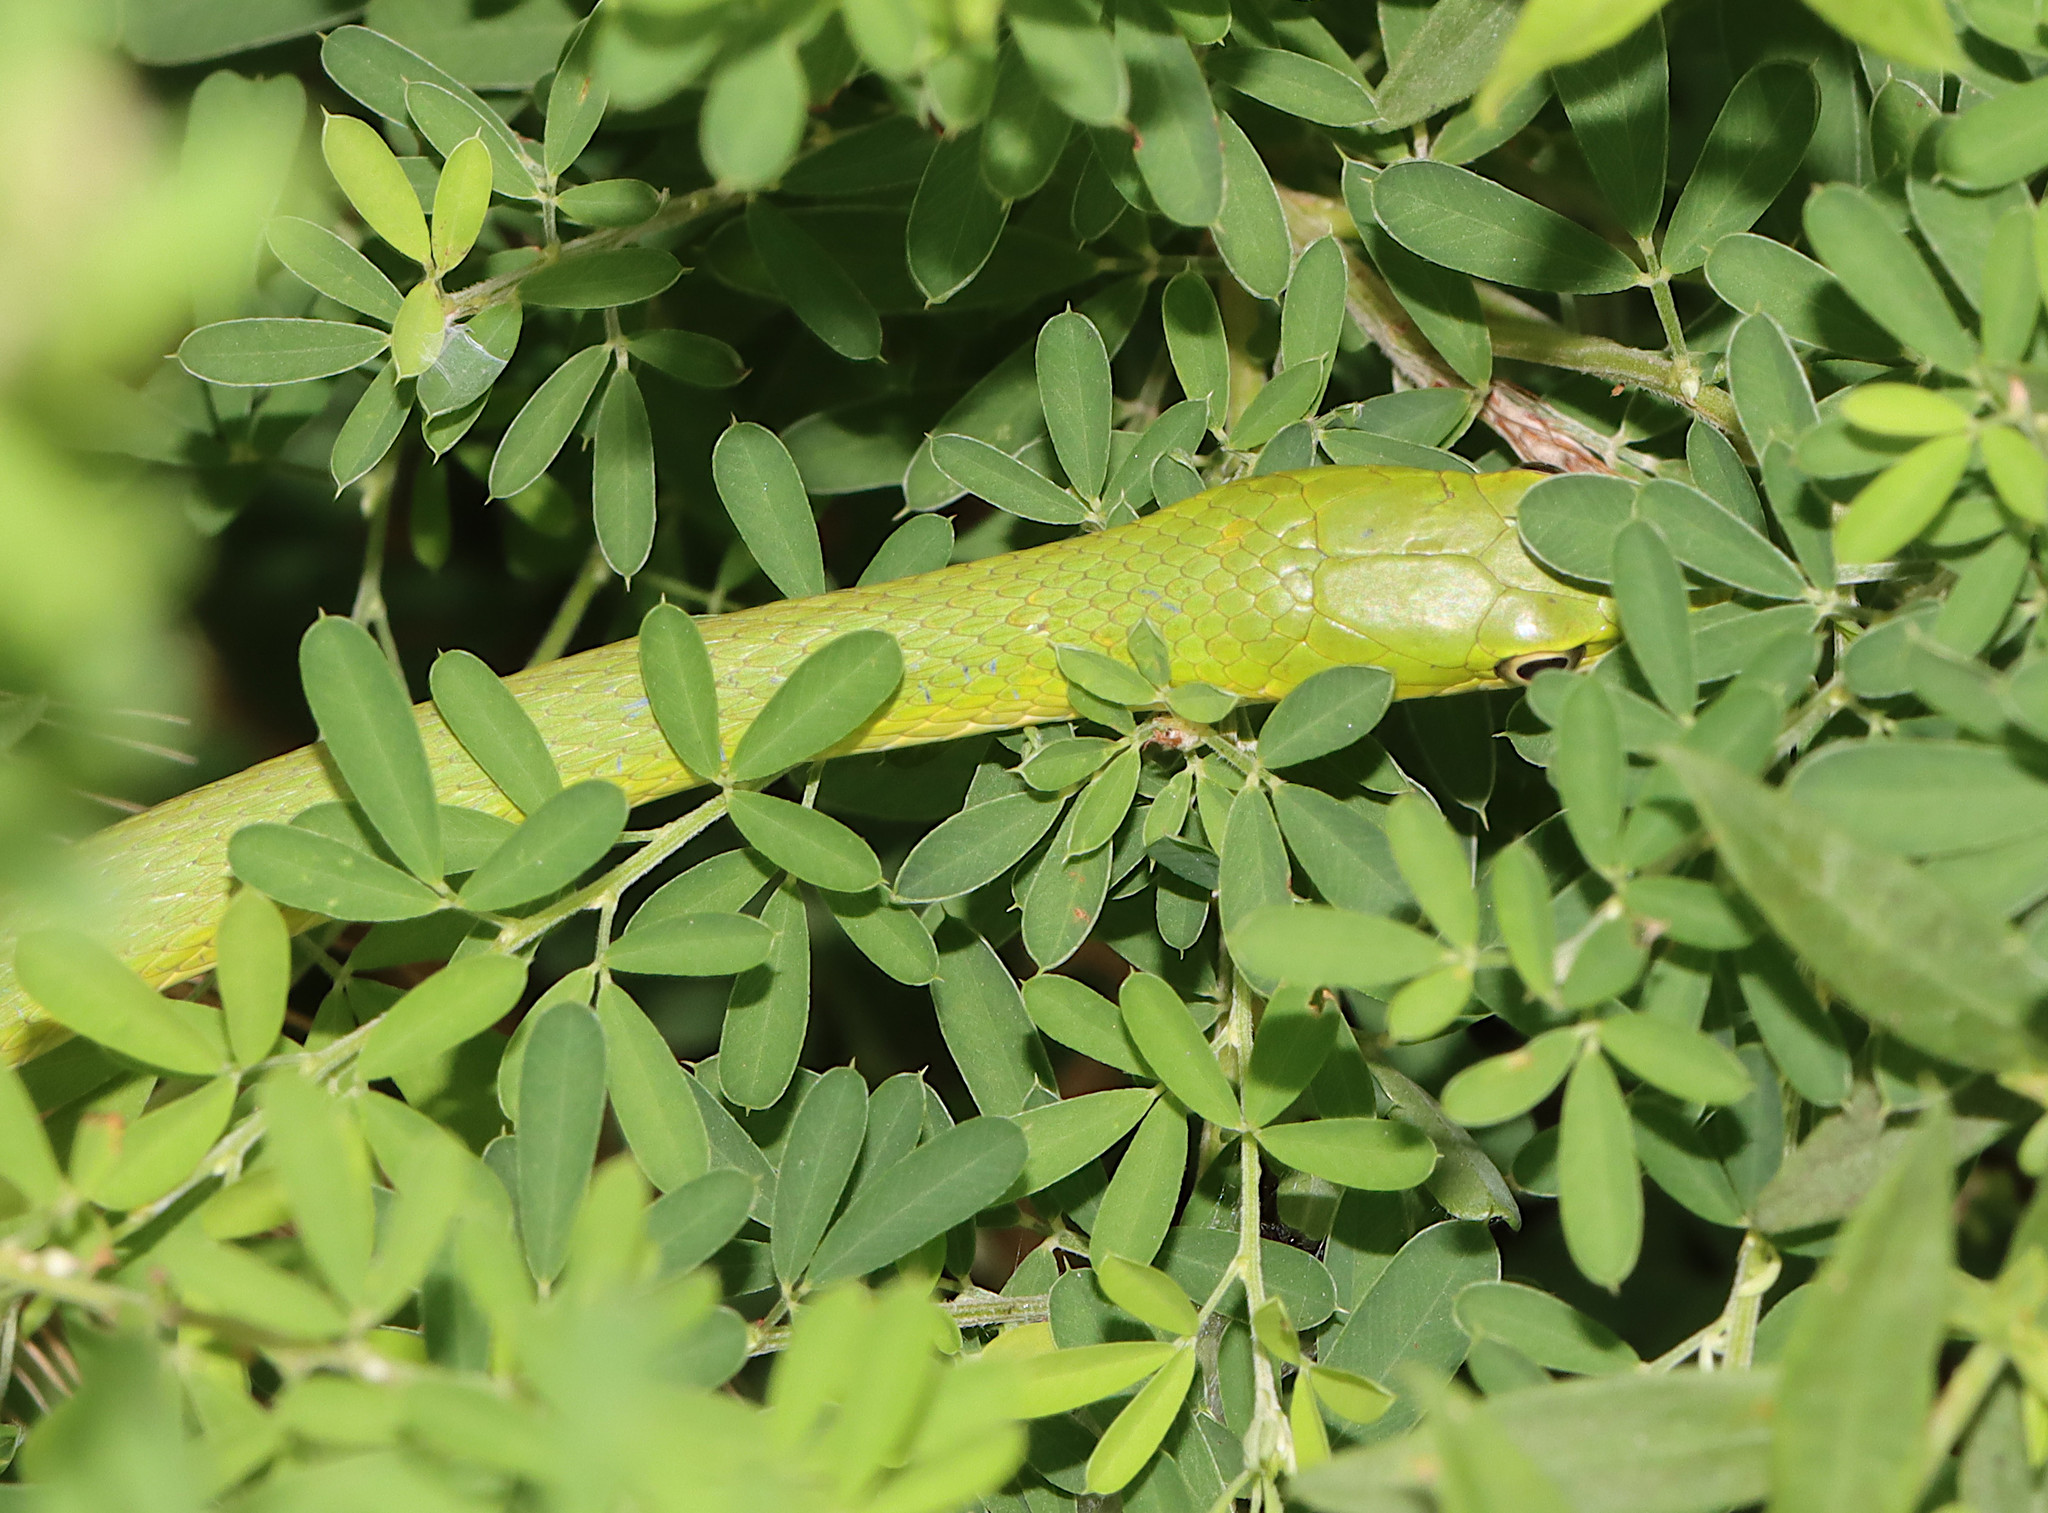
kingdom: Animalia
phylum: Chordata
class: Squamata
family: Colubridae
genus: Opheodrys
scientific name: Opheodrys aestivus
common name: Rough greensnake
